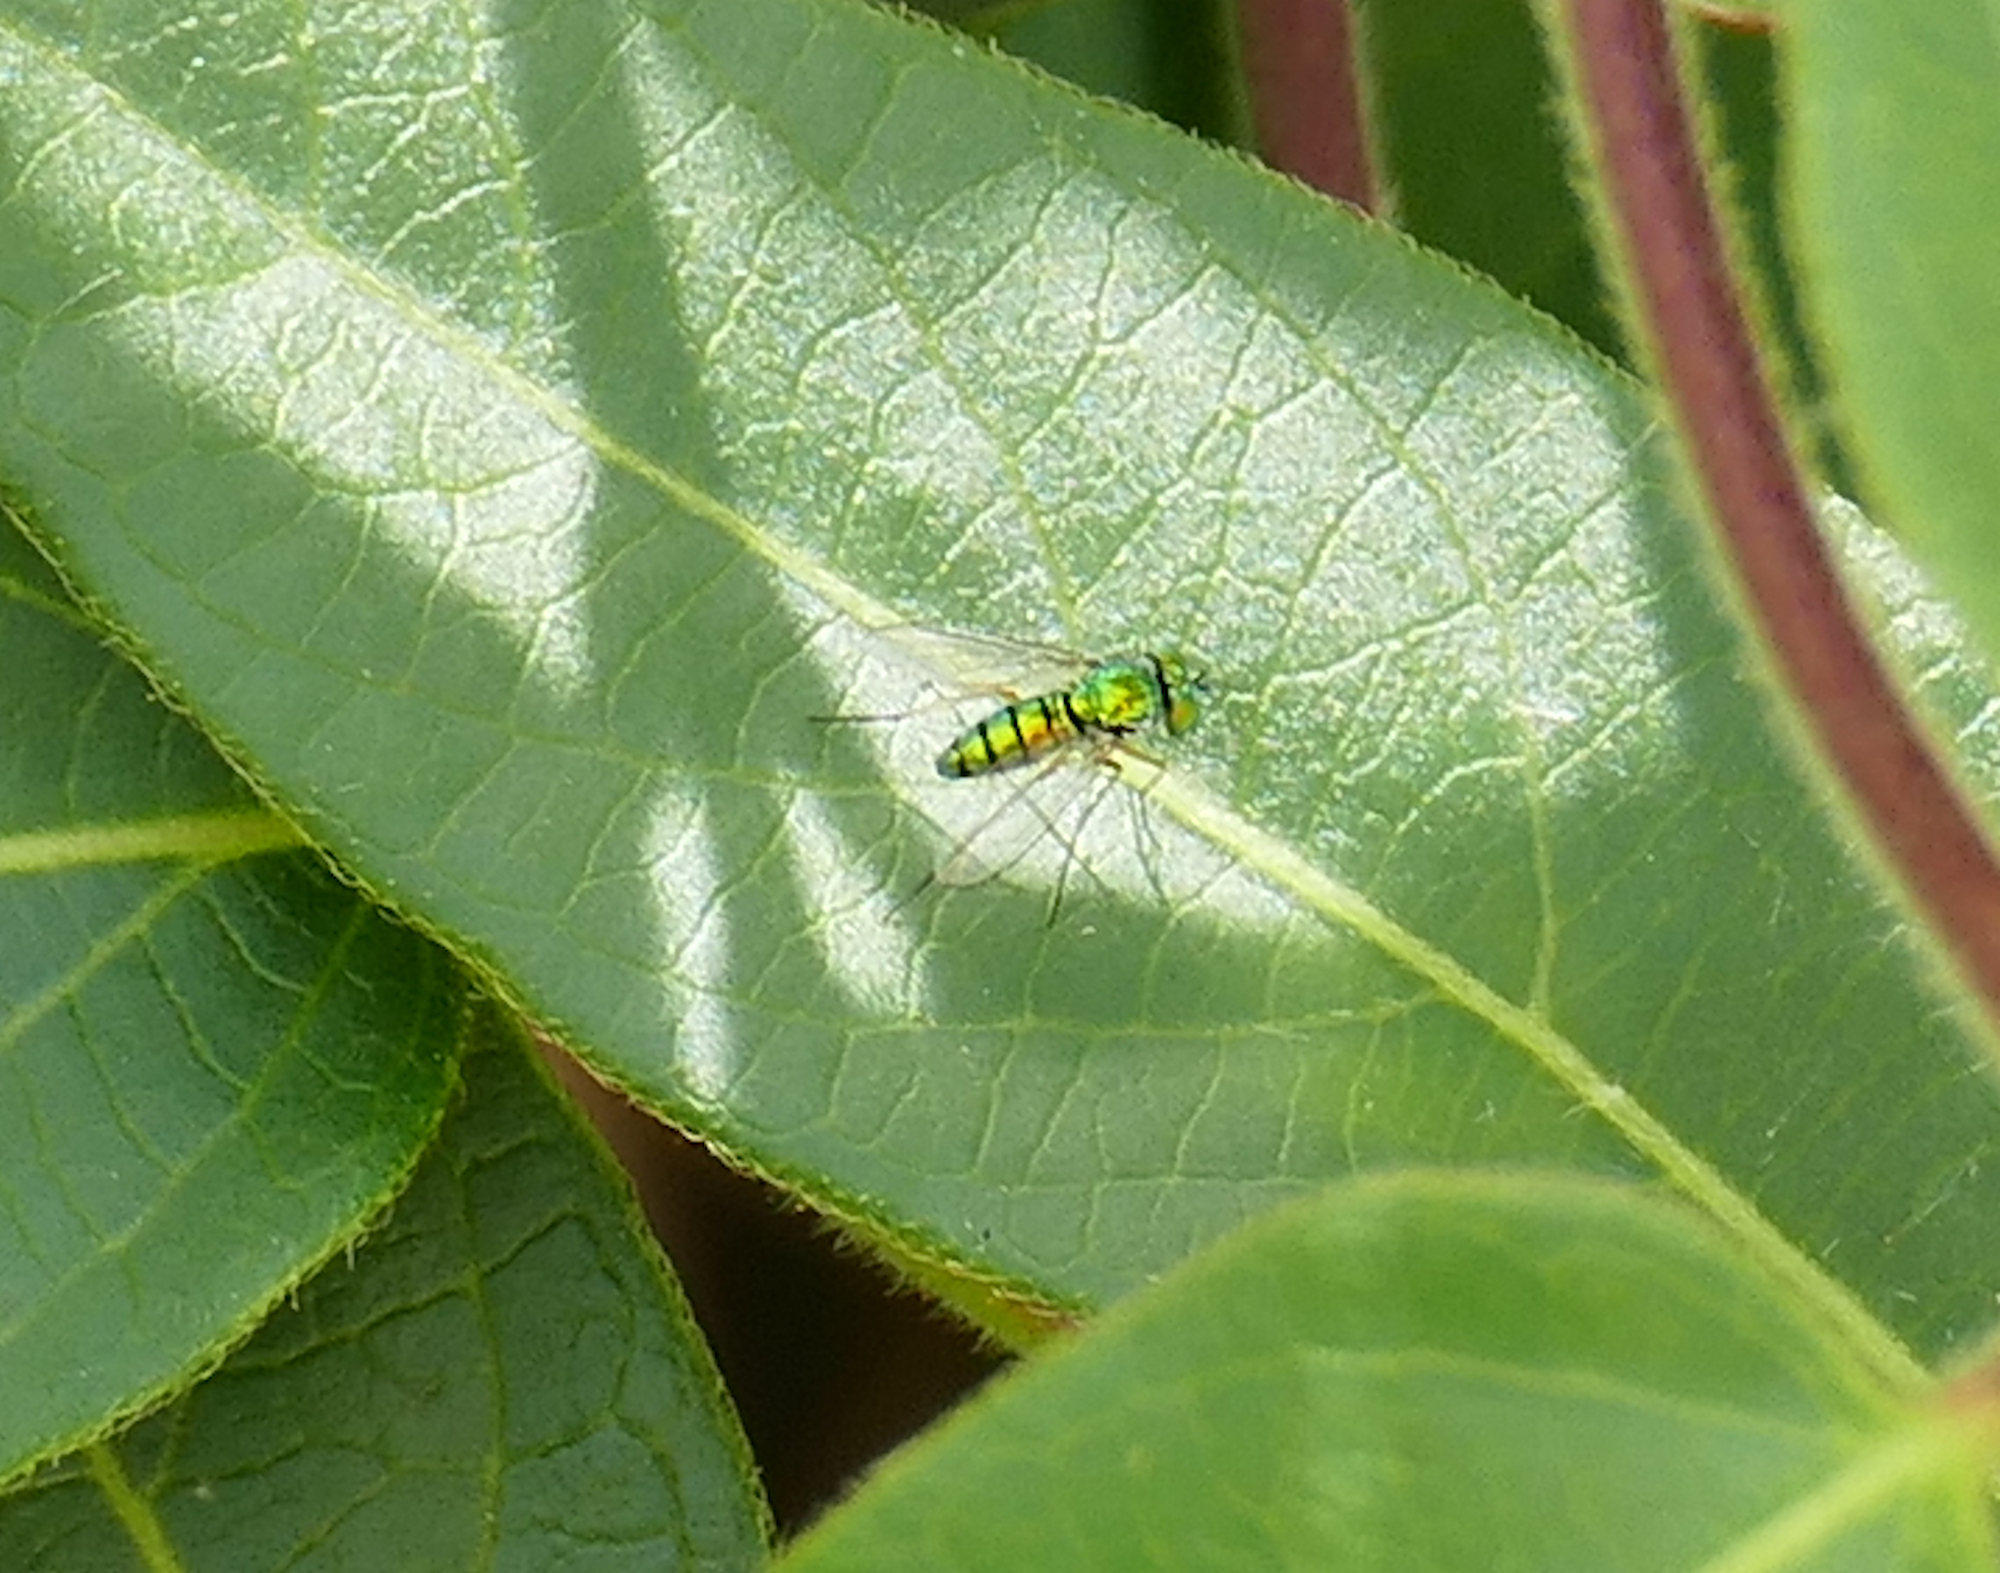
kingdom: Animalia
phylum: Arthropoda
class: Insecta
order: Diptera
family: Dolichopodidae
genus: Condylostylus
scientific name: Condylostylus
